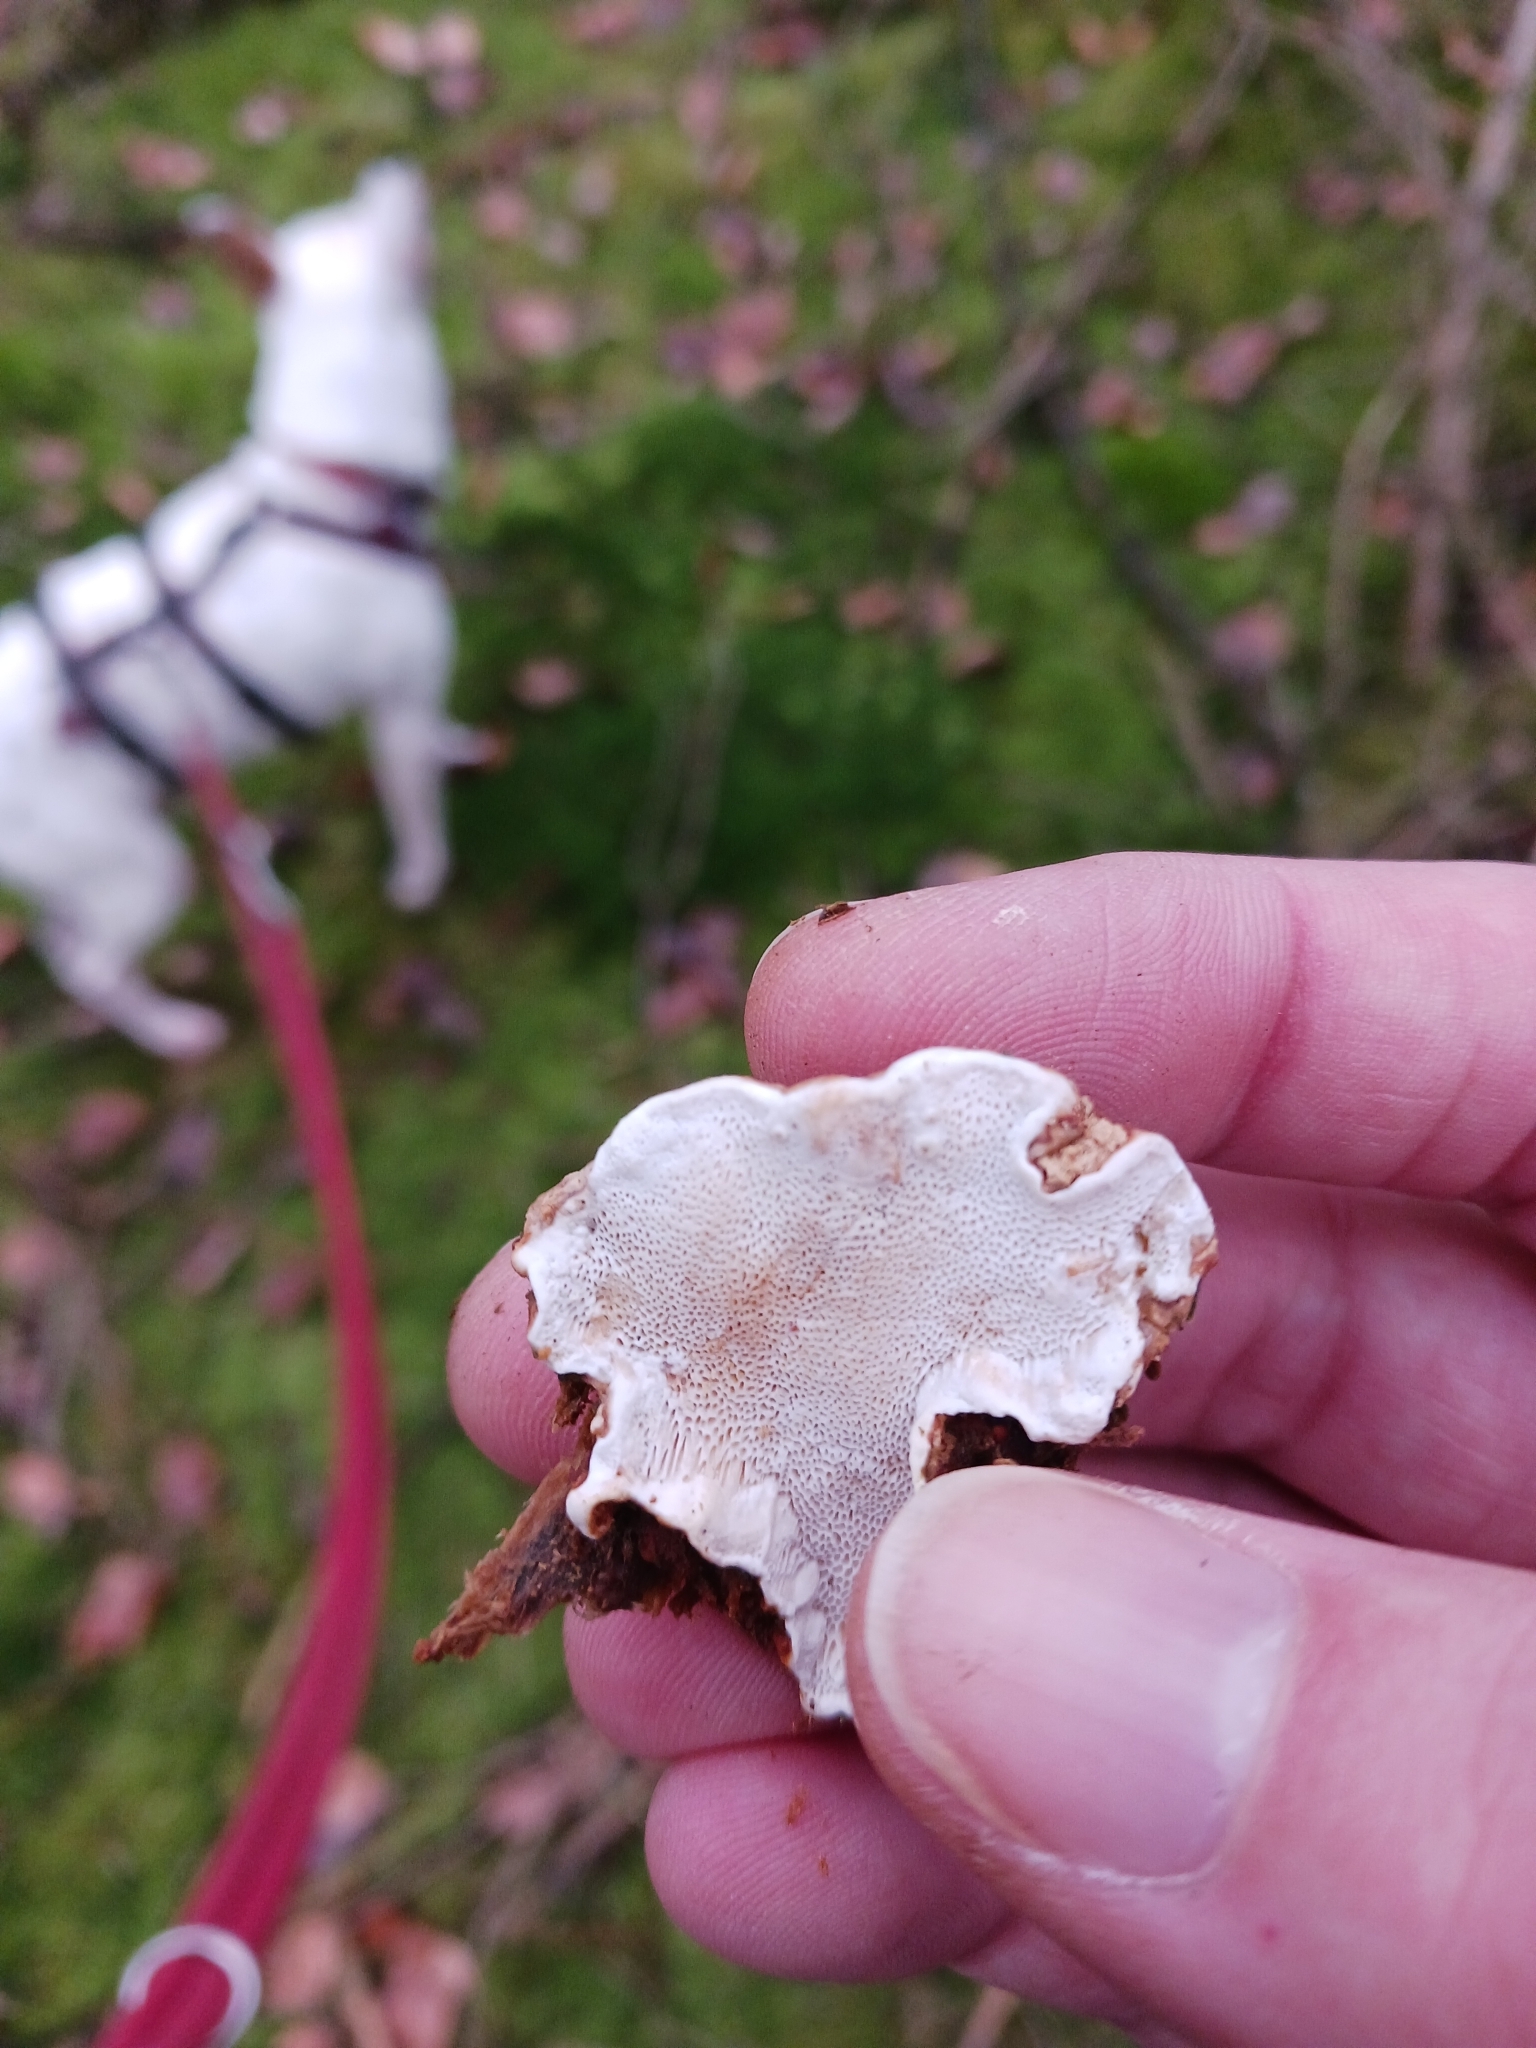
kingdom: Fungi
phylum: Basidiomycota
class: Agaricomycetes
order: Russulales
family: Bondarzewiaceae
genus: Heterobasidion
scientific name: Heterobasidion parviporum
